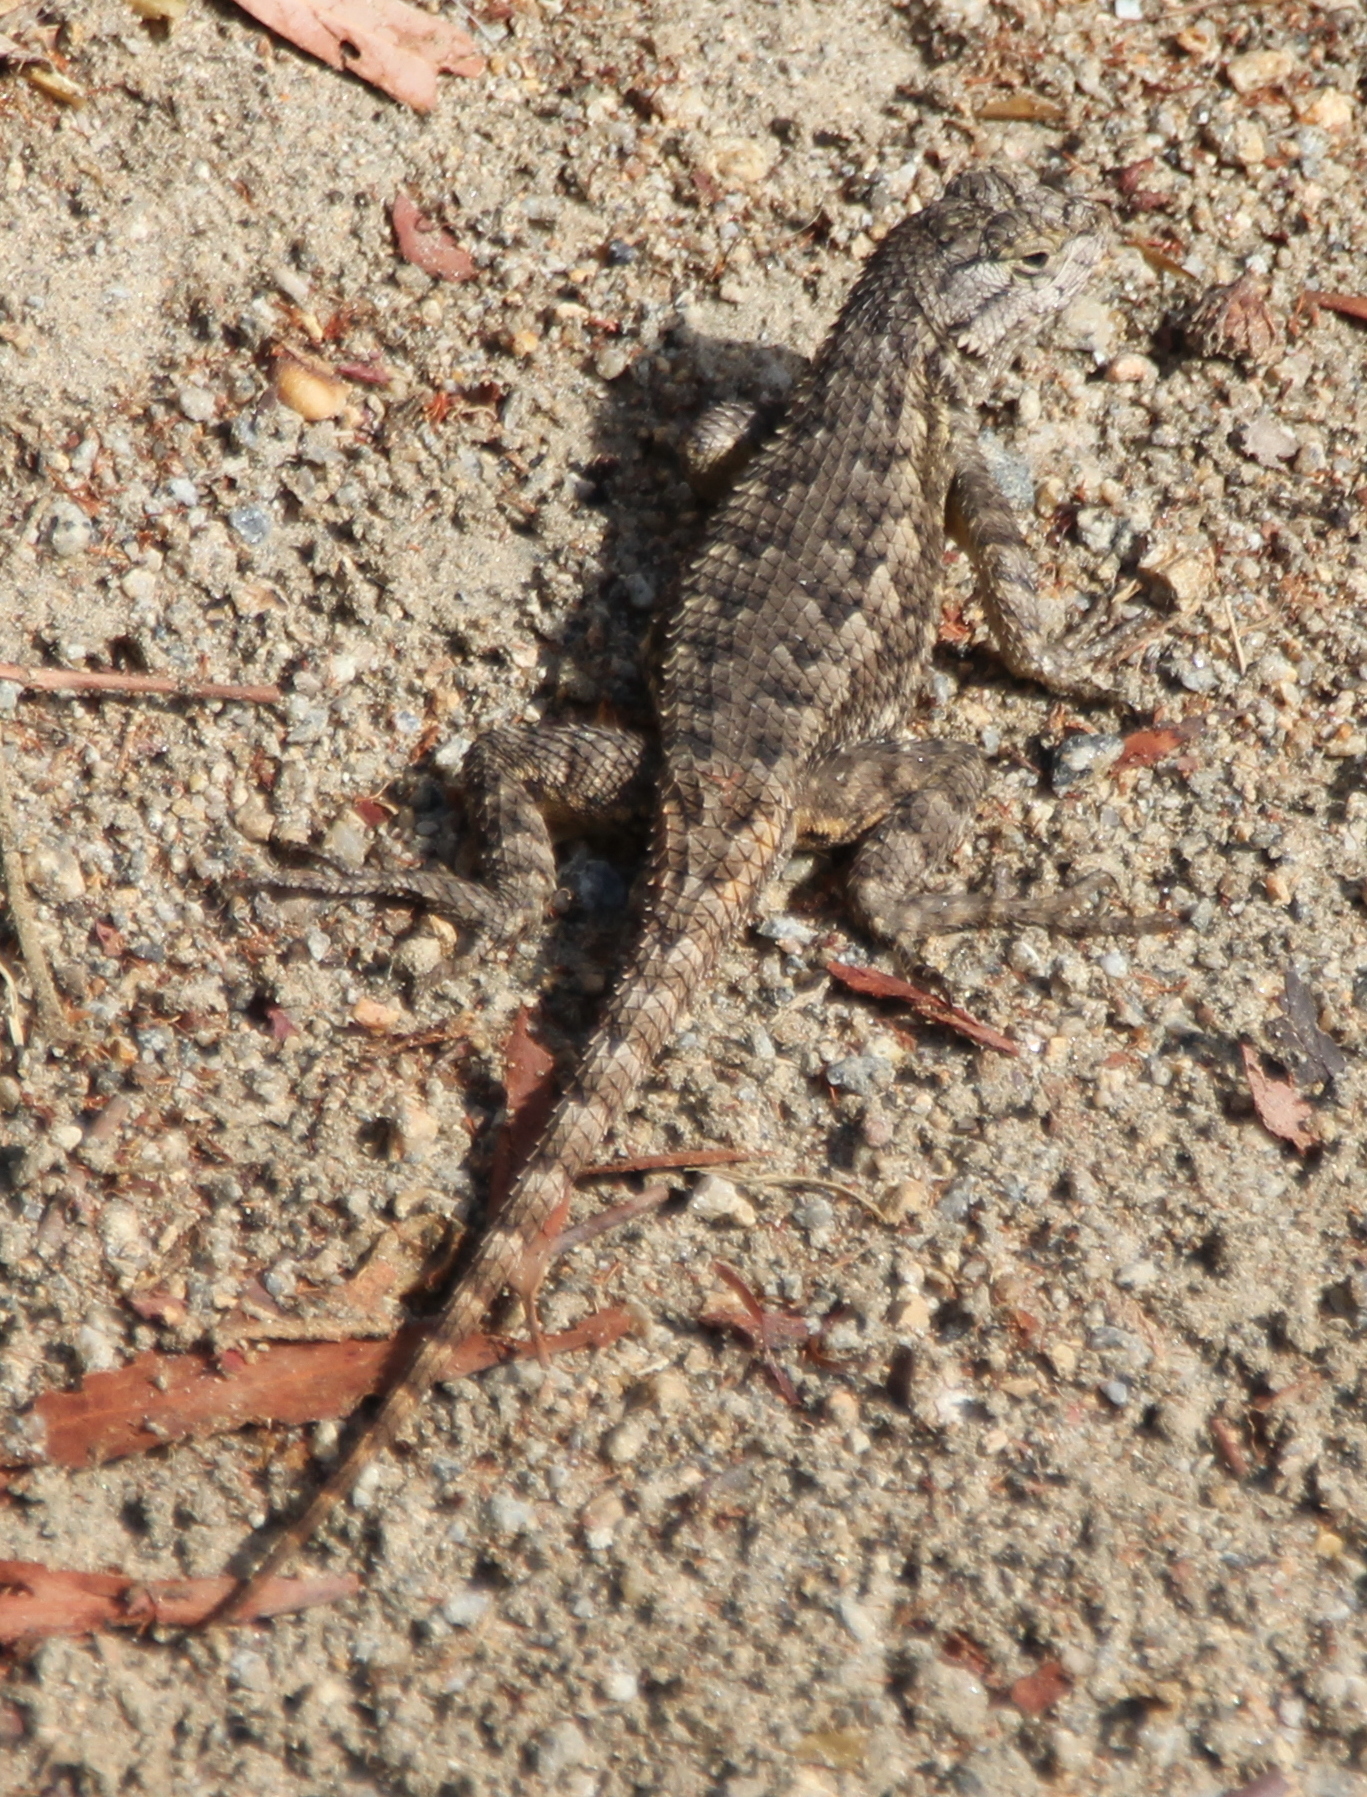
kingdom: Animalia
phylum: Chordata
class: Squamata
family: Phrynosomatidae
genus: Sceloporus
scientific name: Sceloporus occidentalis
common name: Western fence lizard
